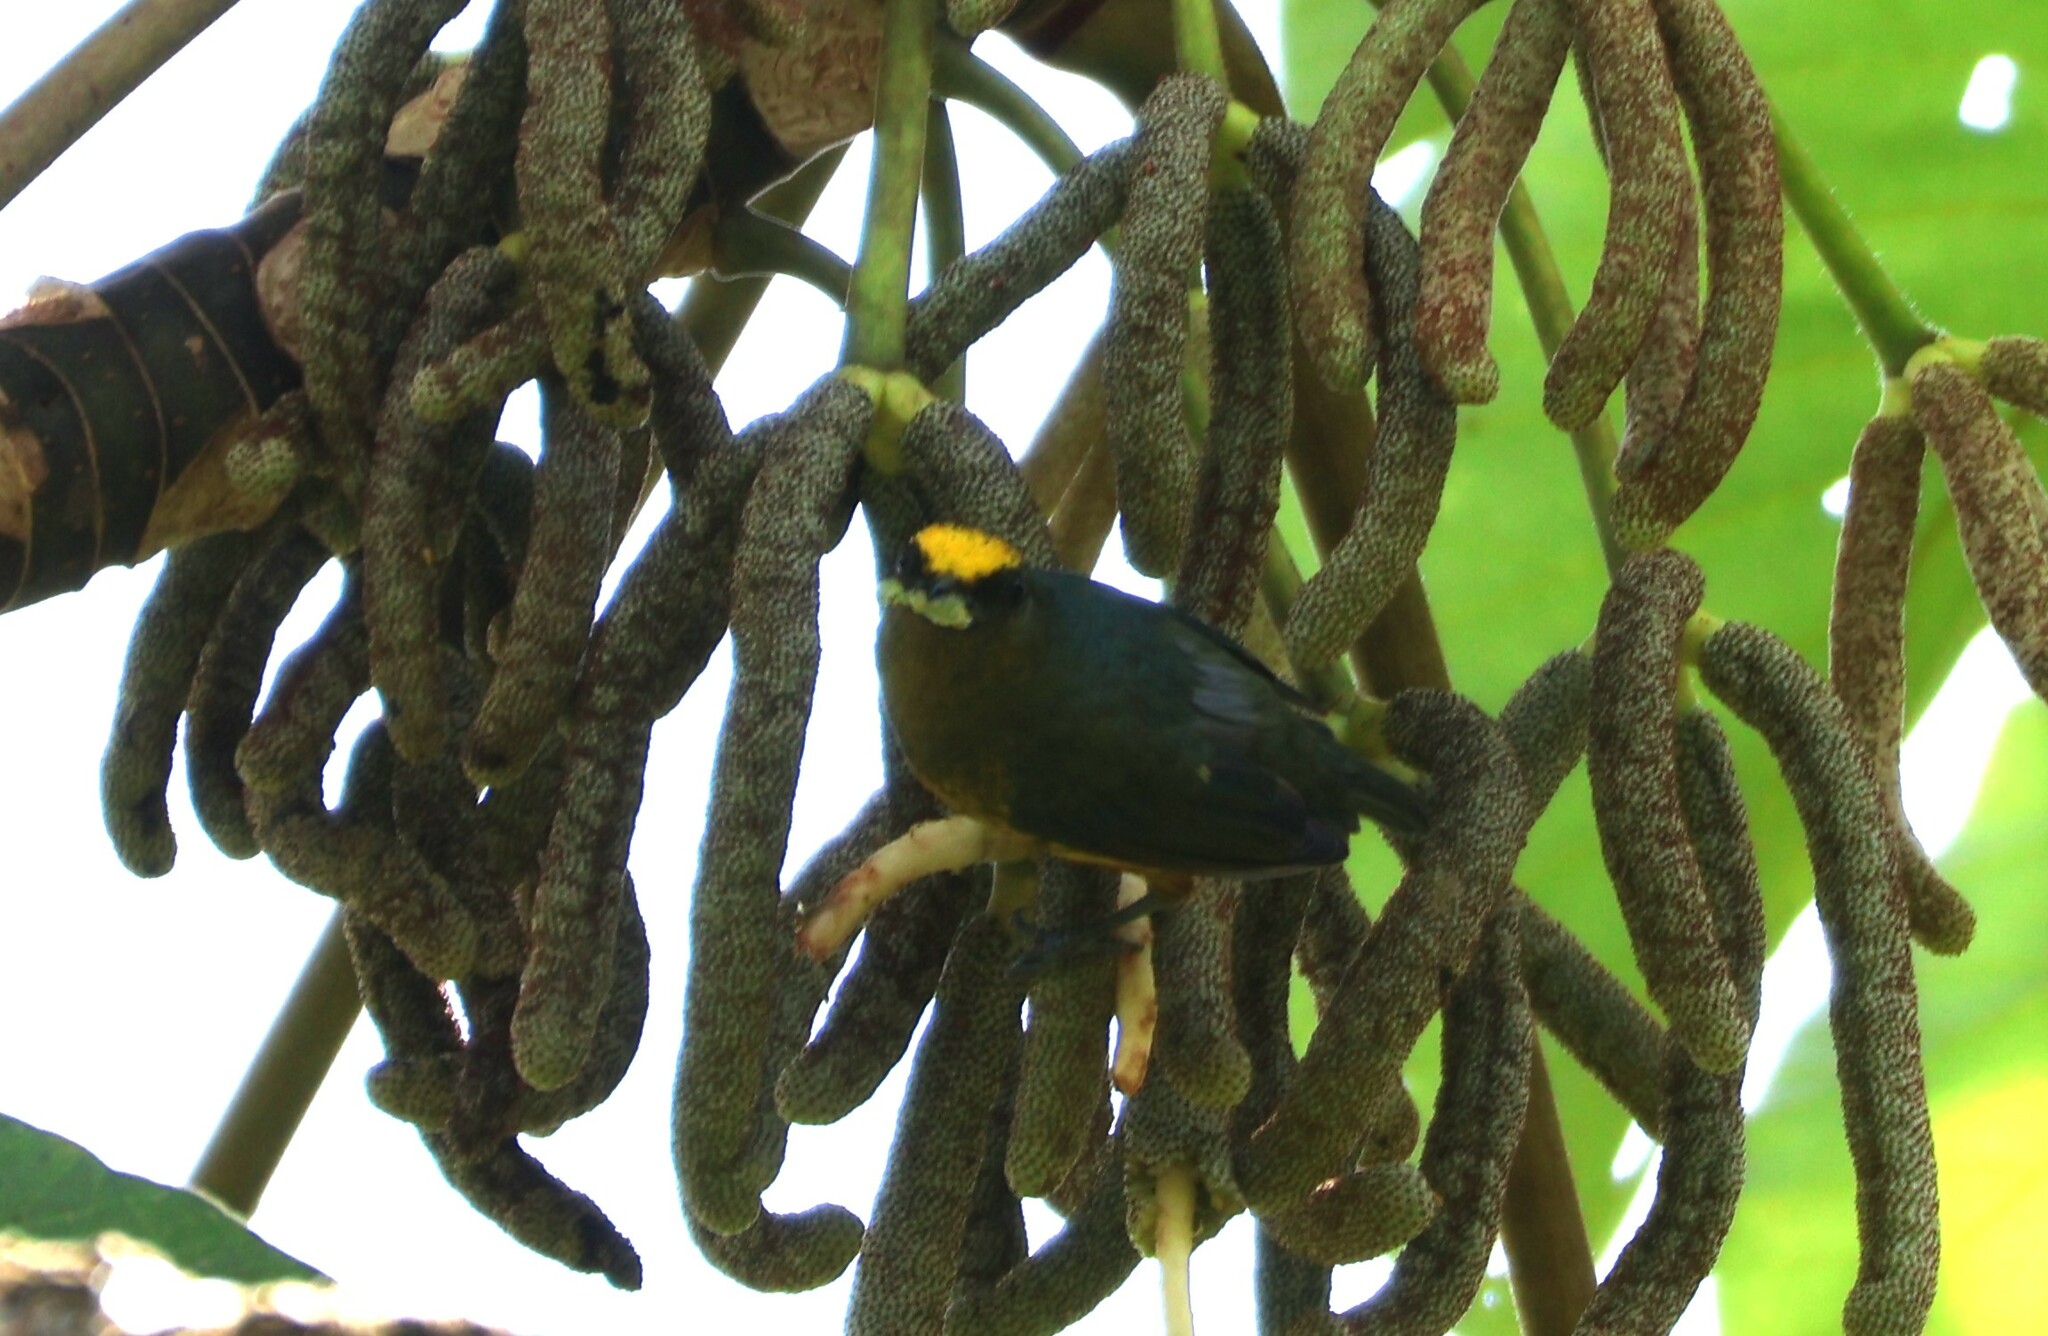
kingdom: Animalia
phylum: Chordata
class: Aves
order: Passeriformes
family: Fringillidae
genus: Euphonia
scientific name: Euphonia gouldi
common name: Olive-backed euphonia
